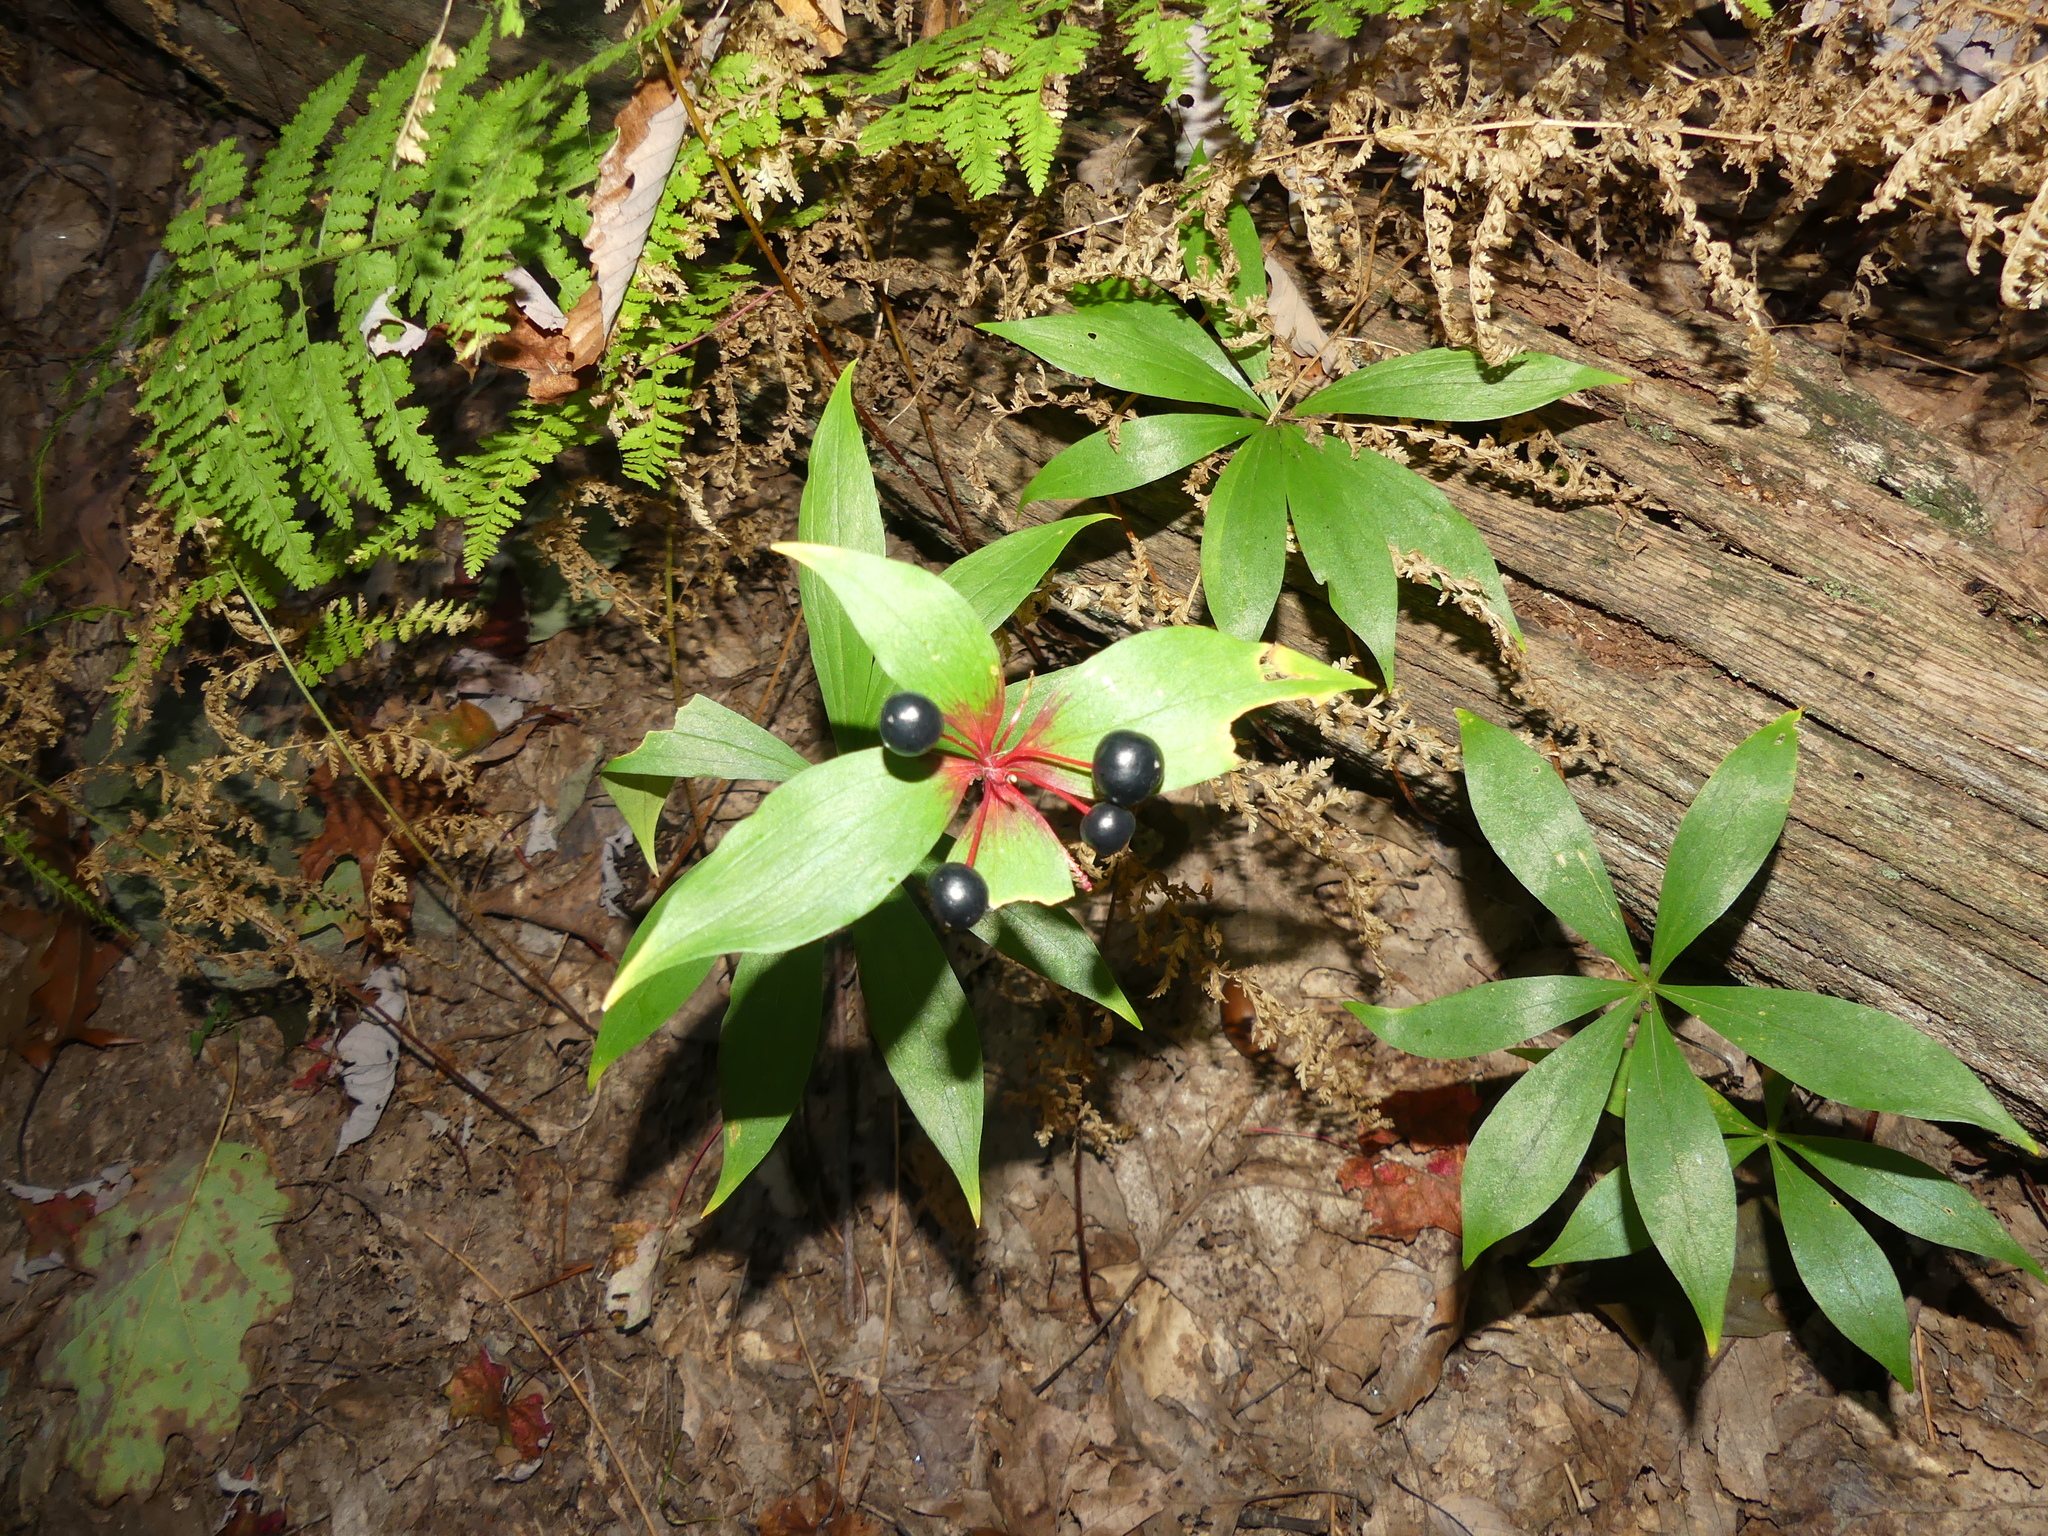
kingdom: Plantae
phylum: Tracheophyta
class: Liliopsida
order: Liliales
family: Liliaceae
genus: Medeola
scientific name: Medeola virginiana
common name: Indian cucumber-root
